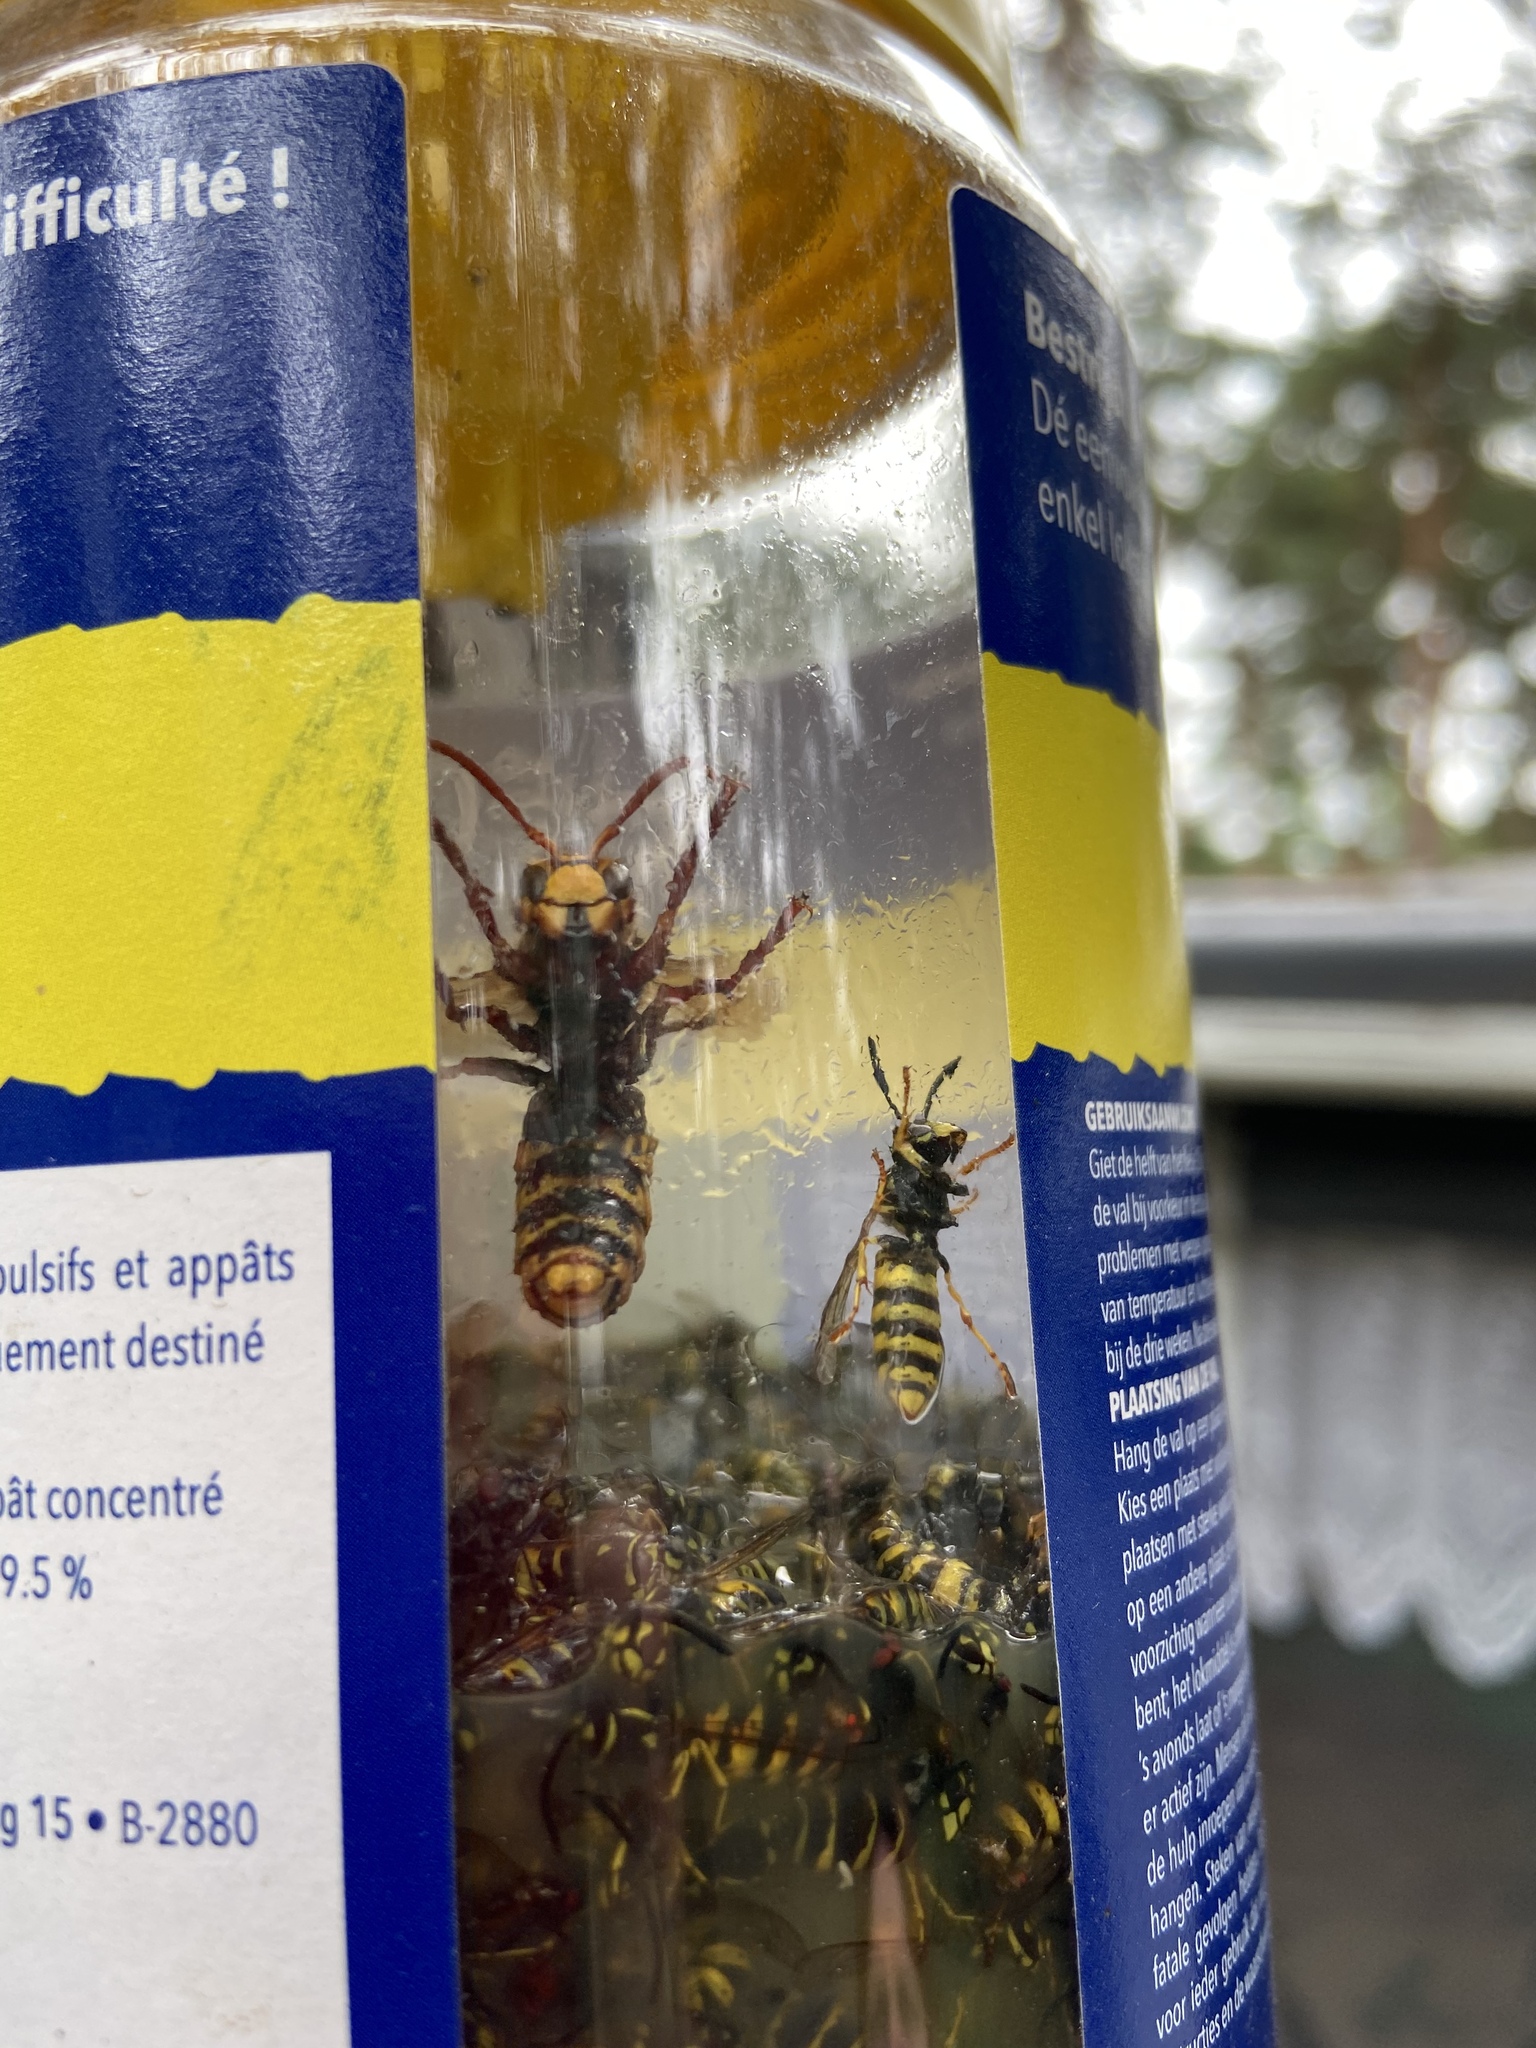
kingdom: Animalia
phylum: Arthropoda
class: Insecta
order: Hymenoptera
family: Vespidae
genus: Vespa
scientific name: Vespa crabro
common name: Hornet
